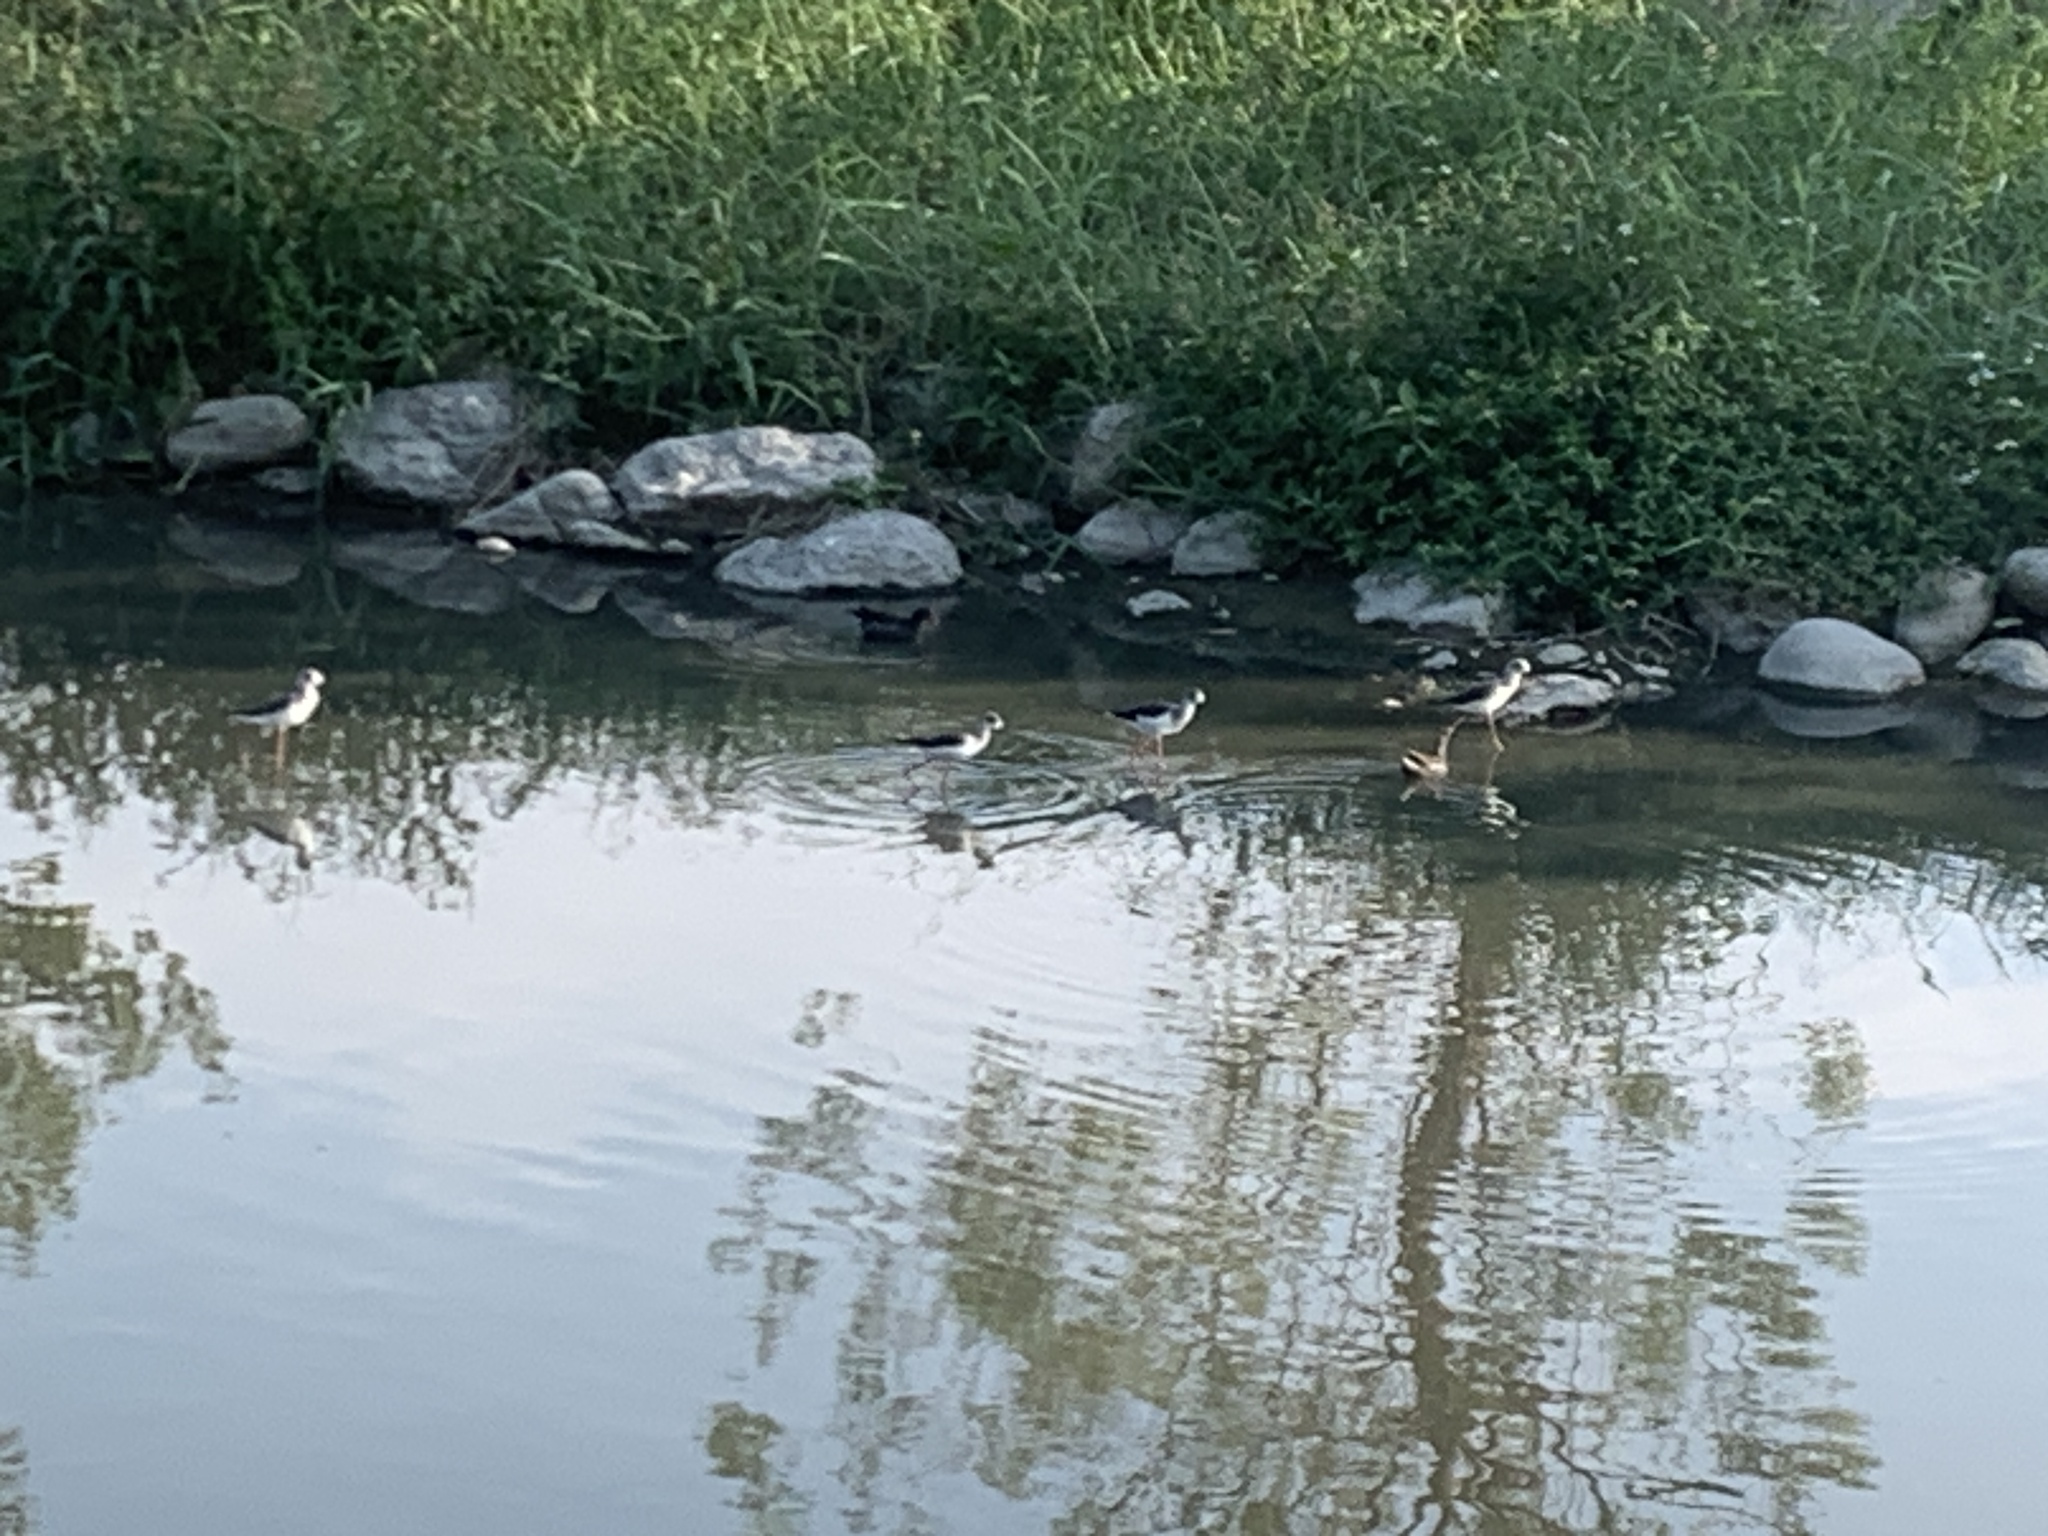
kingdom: Animalia
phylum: Chordata
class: Aves
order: Charadriiformes
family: Recurvirostridae
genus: Himantopus
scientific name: Himantopus himantopus
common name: Black-winged stilt
